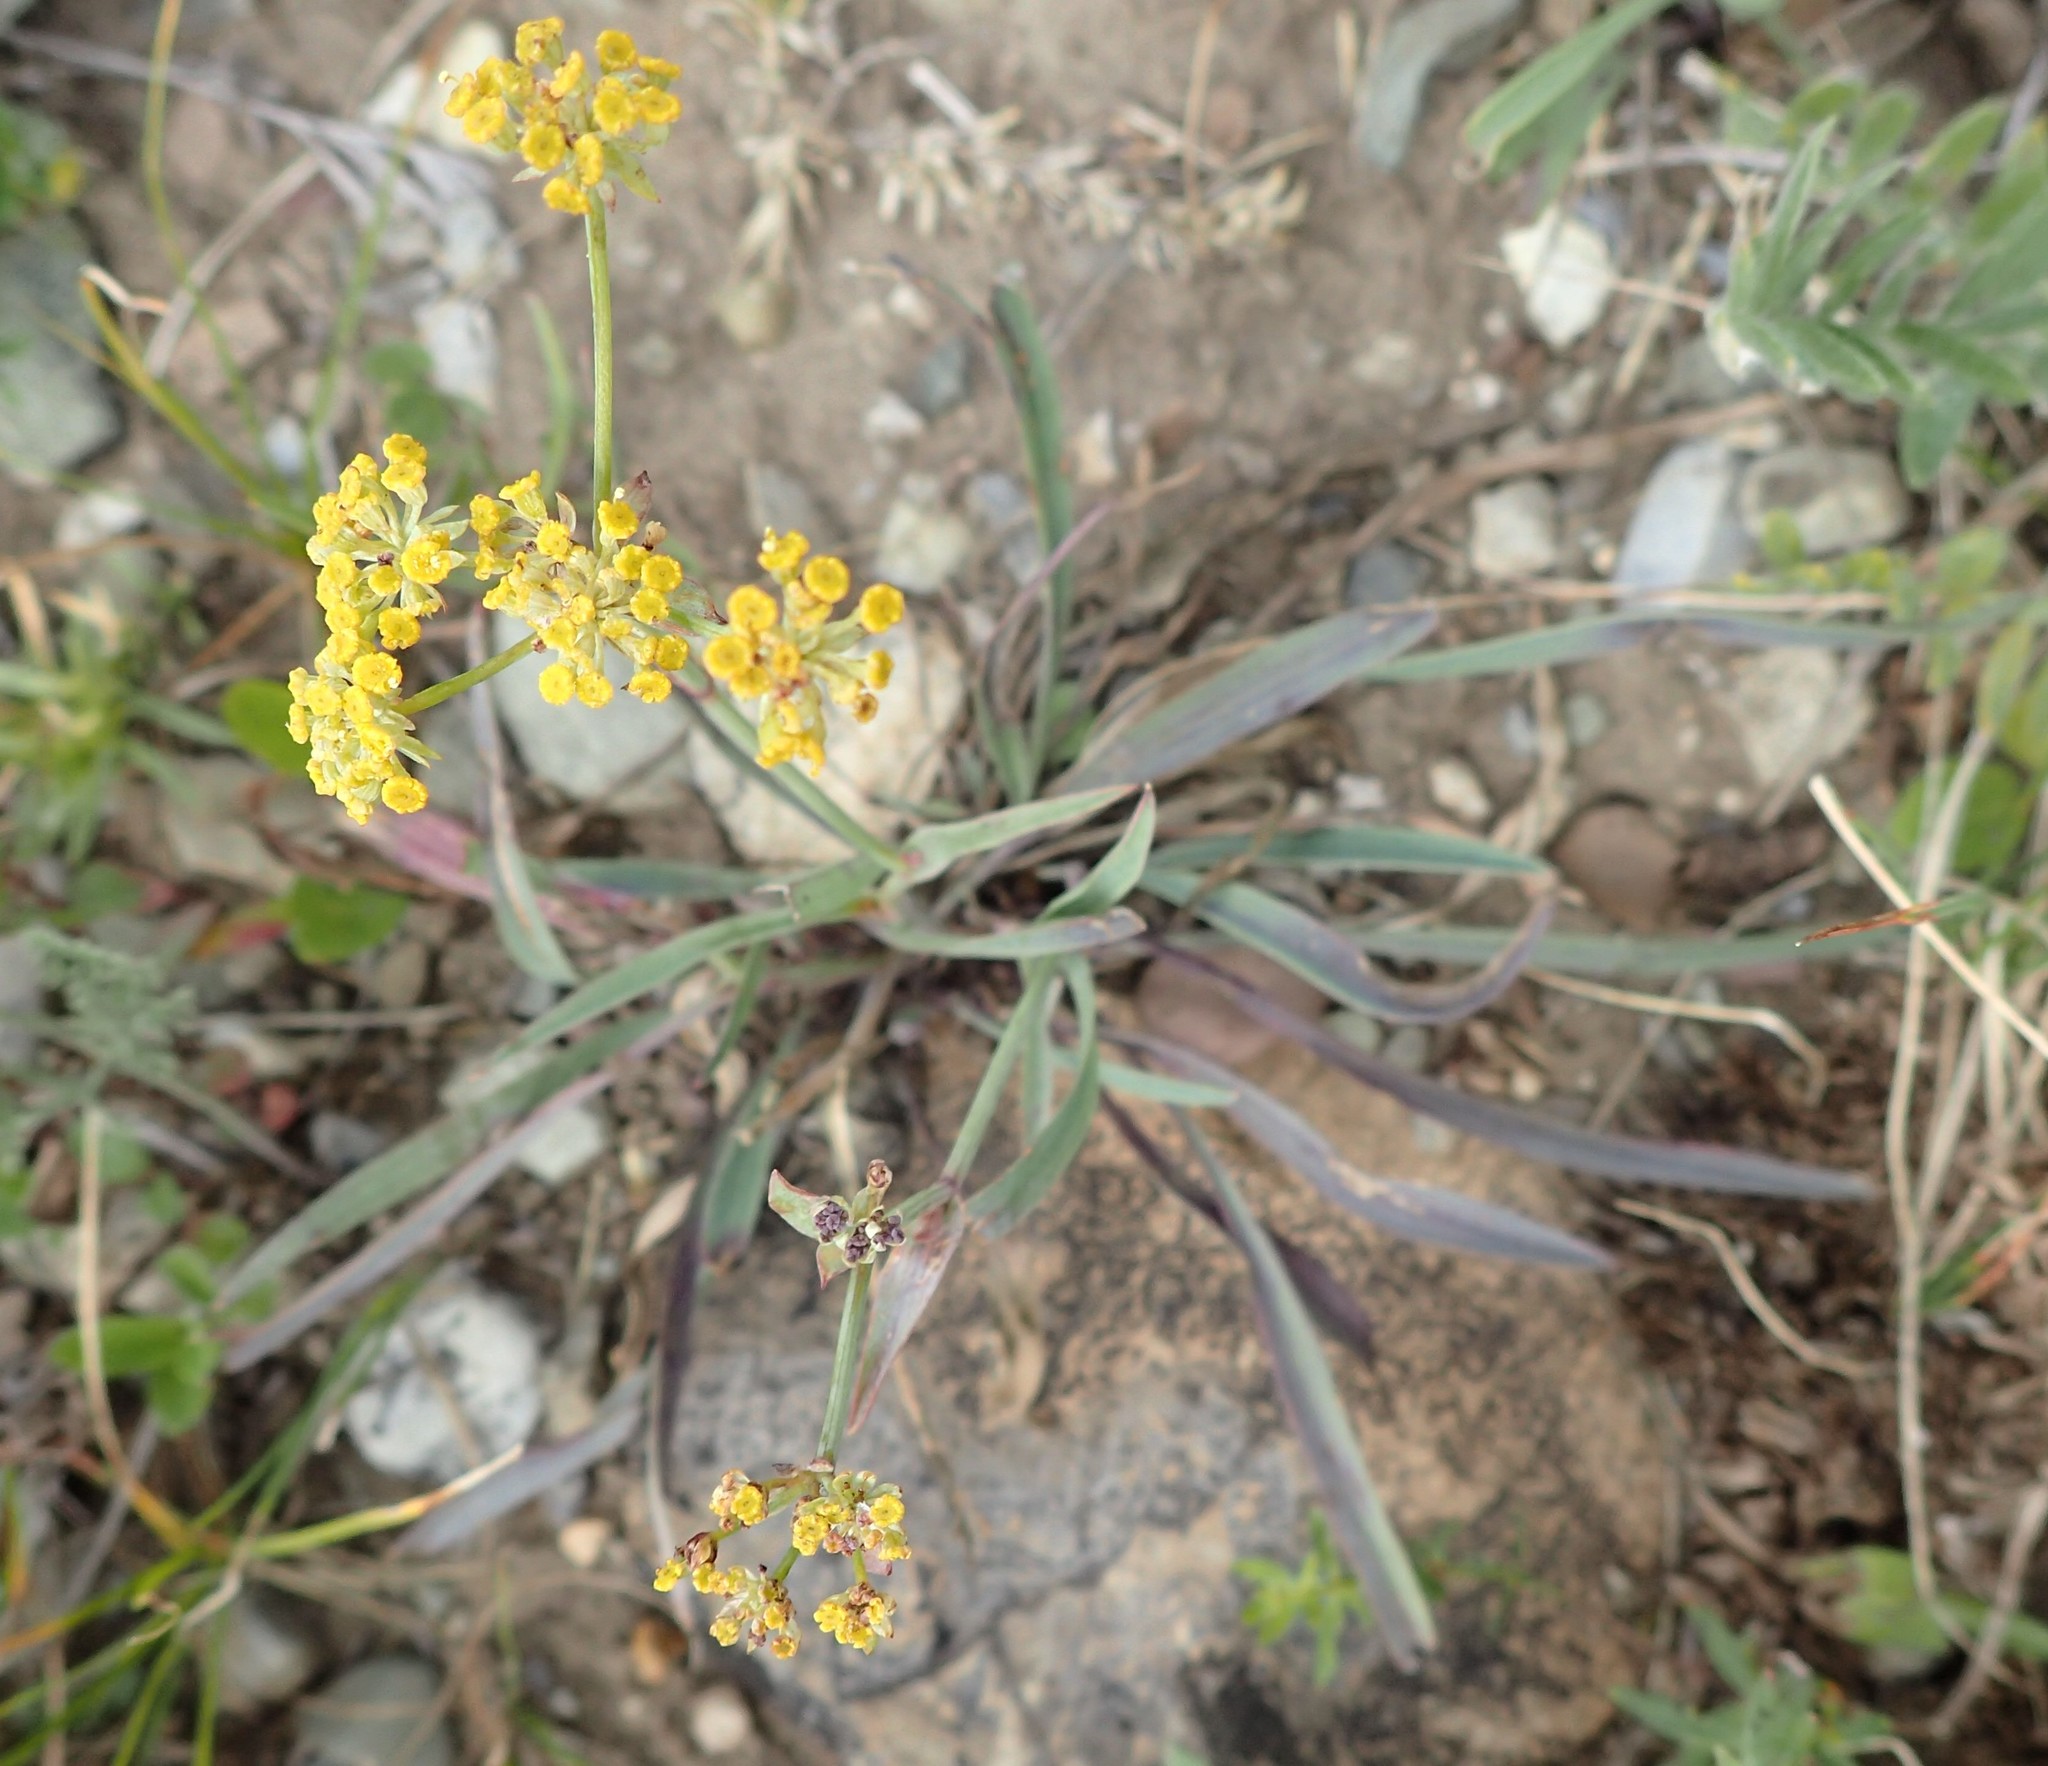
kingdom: Plantae
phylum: Tracheophyta
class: Magnoliopsida
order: Apiales
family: Apiaceae
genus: Bupleurum
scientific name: Bupleurum americanum
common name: American thoroughwax
